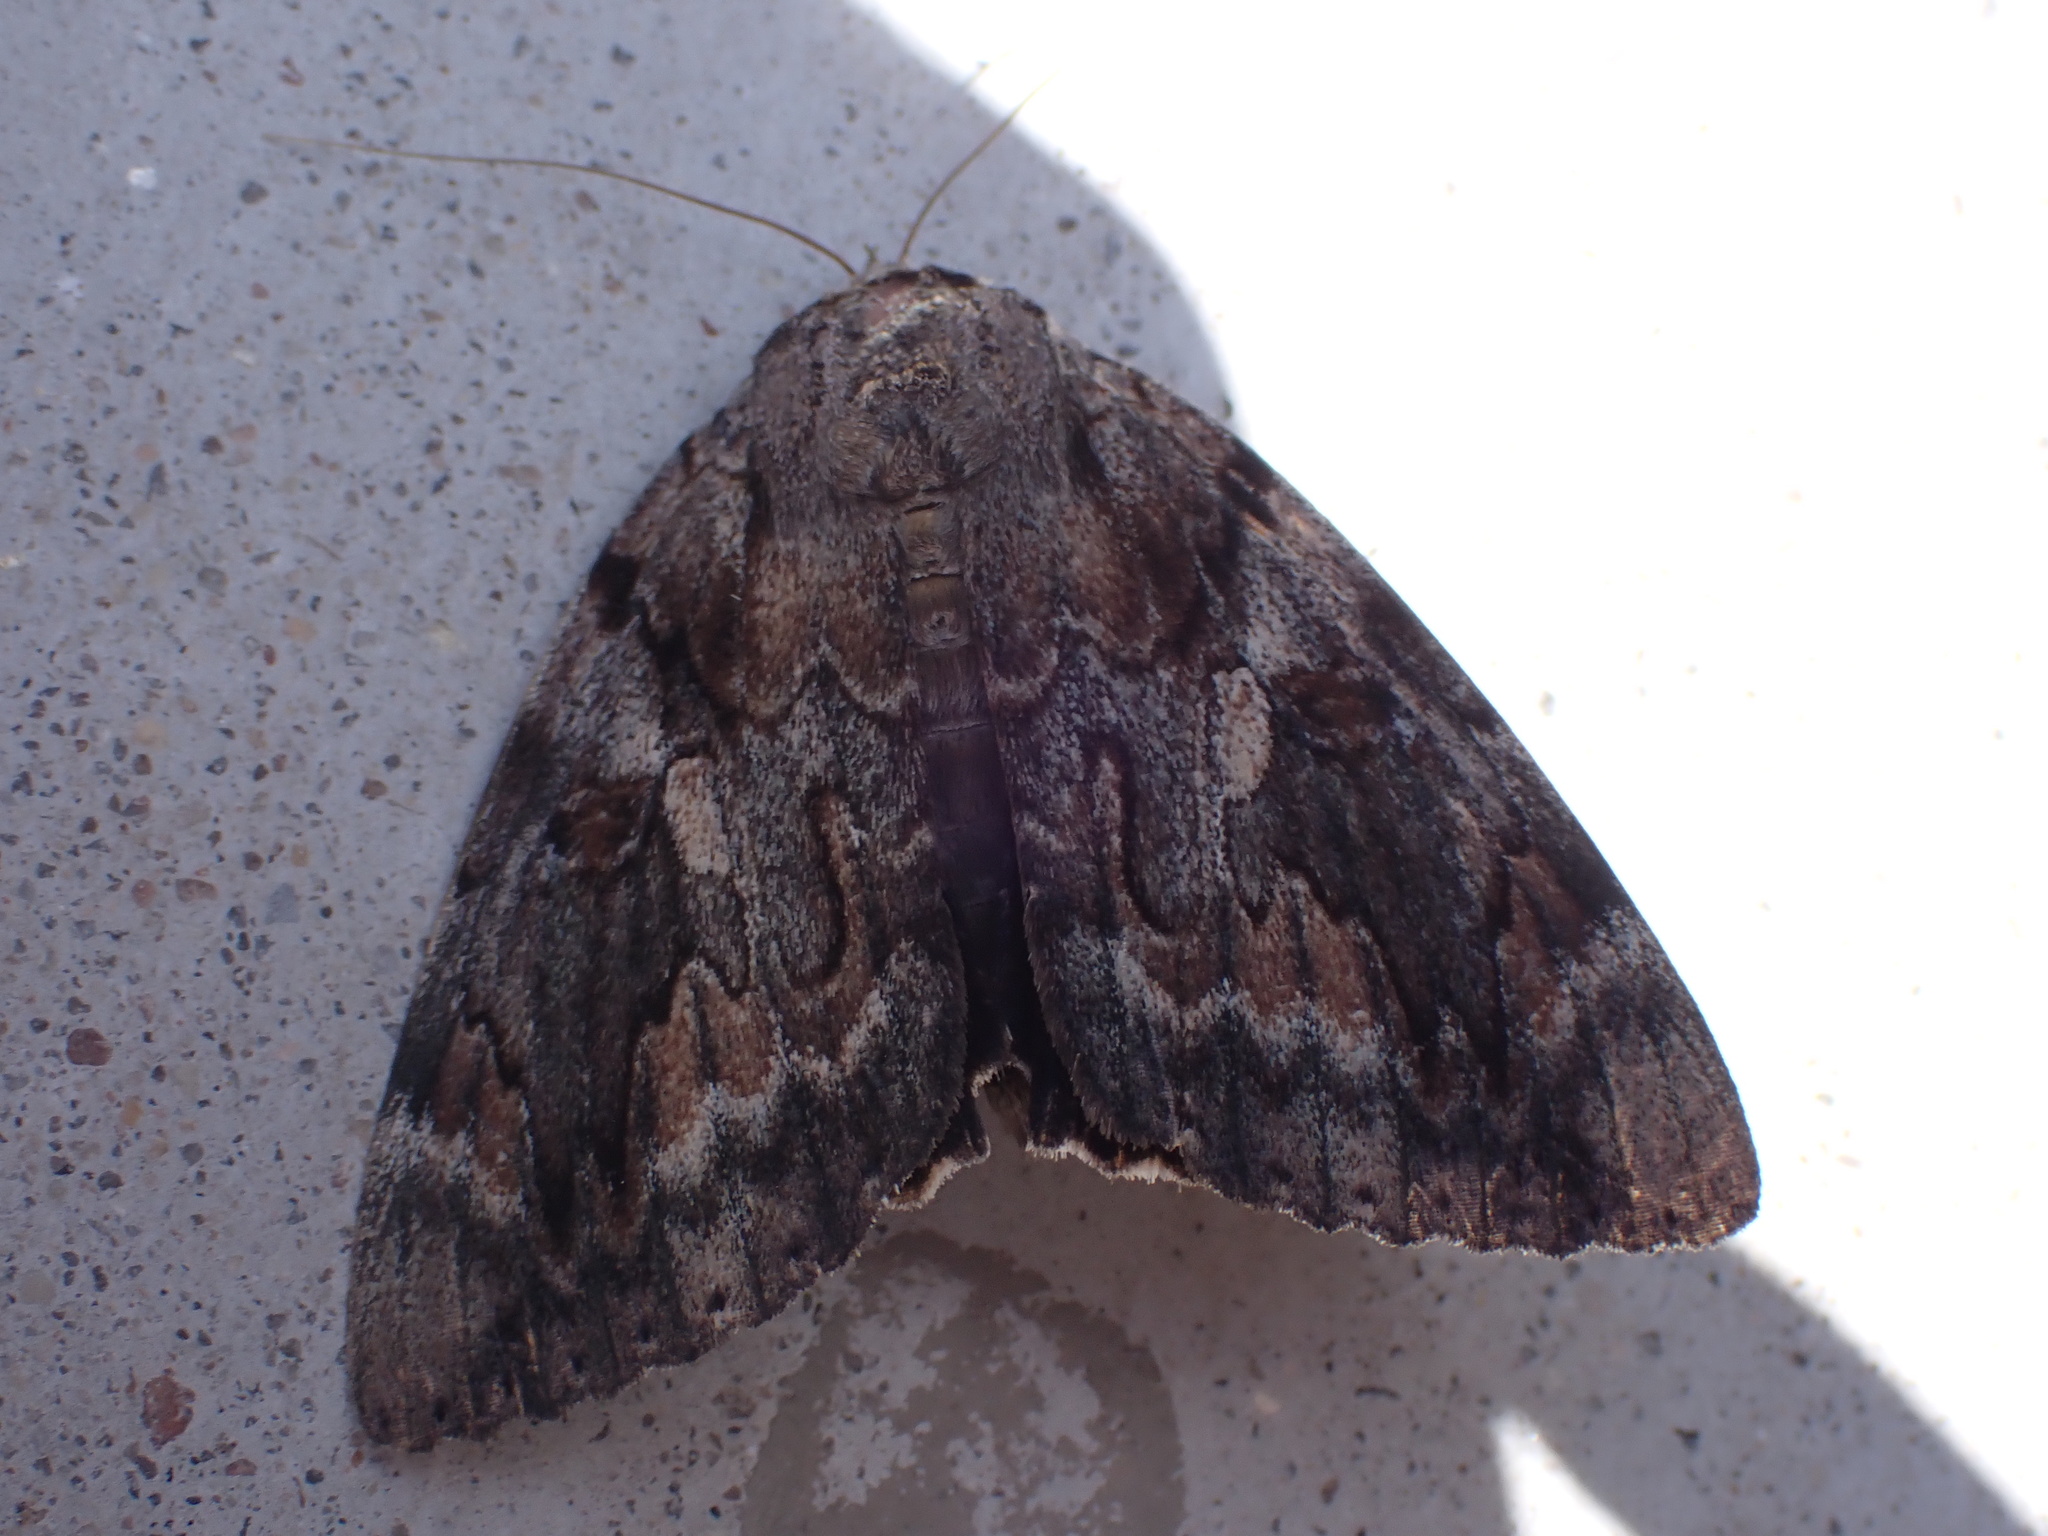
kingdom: Animalia
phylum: Arthropoda
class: Insecta
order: Lepidoptera
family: Erebidae
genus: Catocala
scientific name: Catocala agrippina
